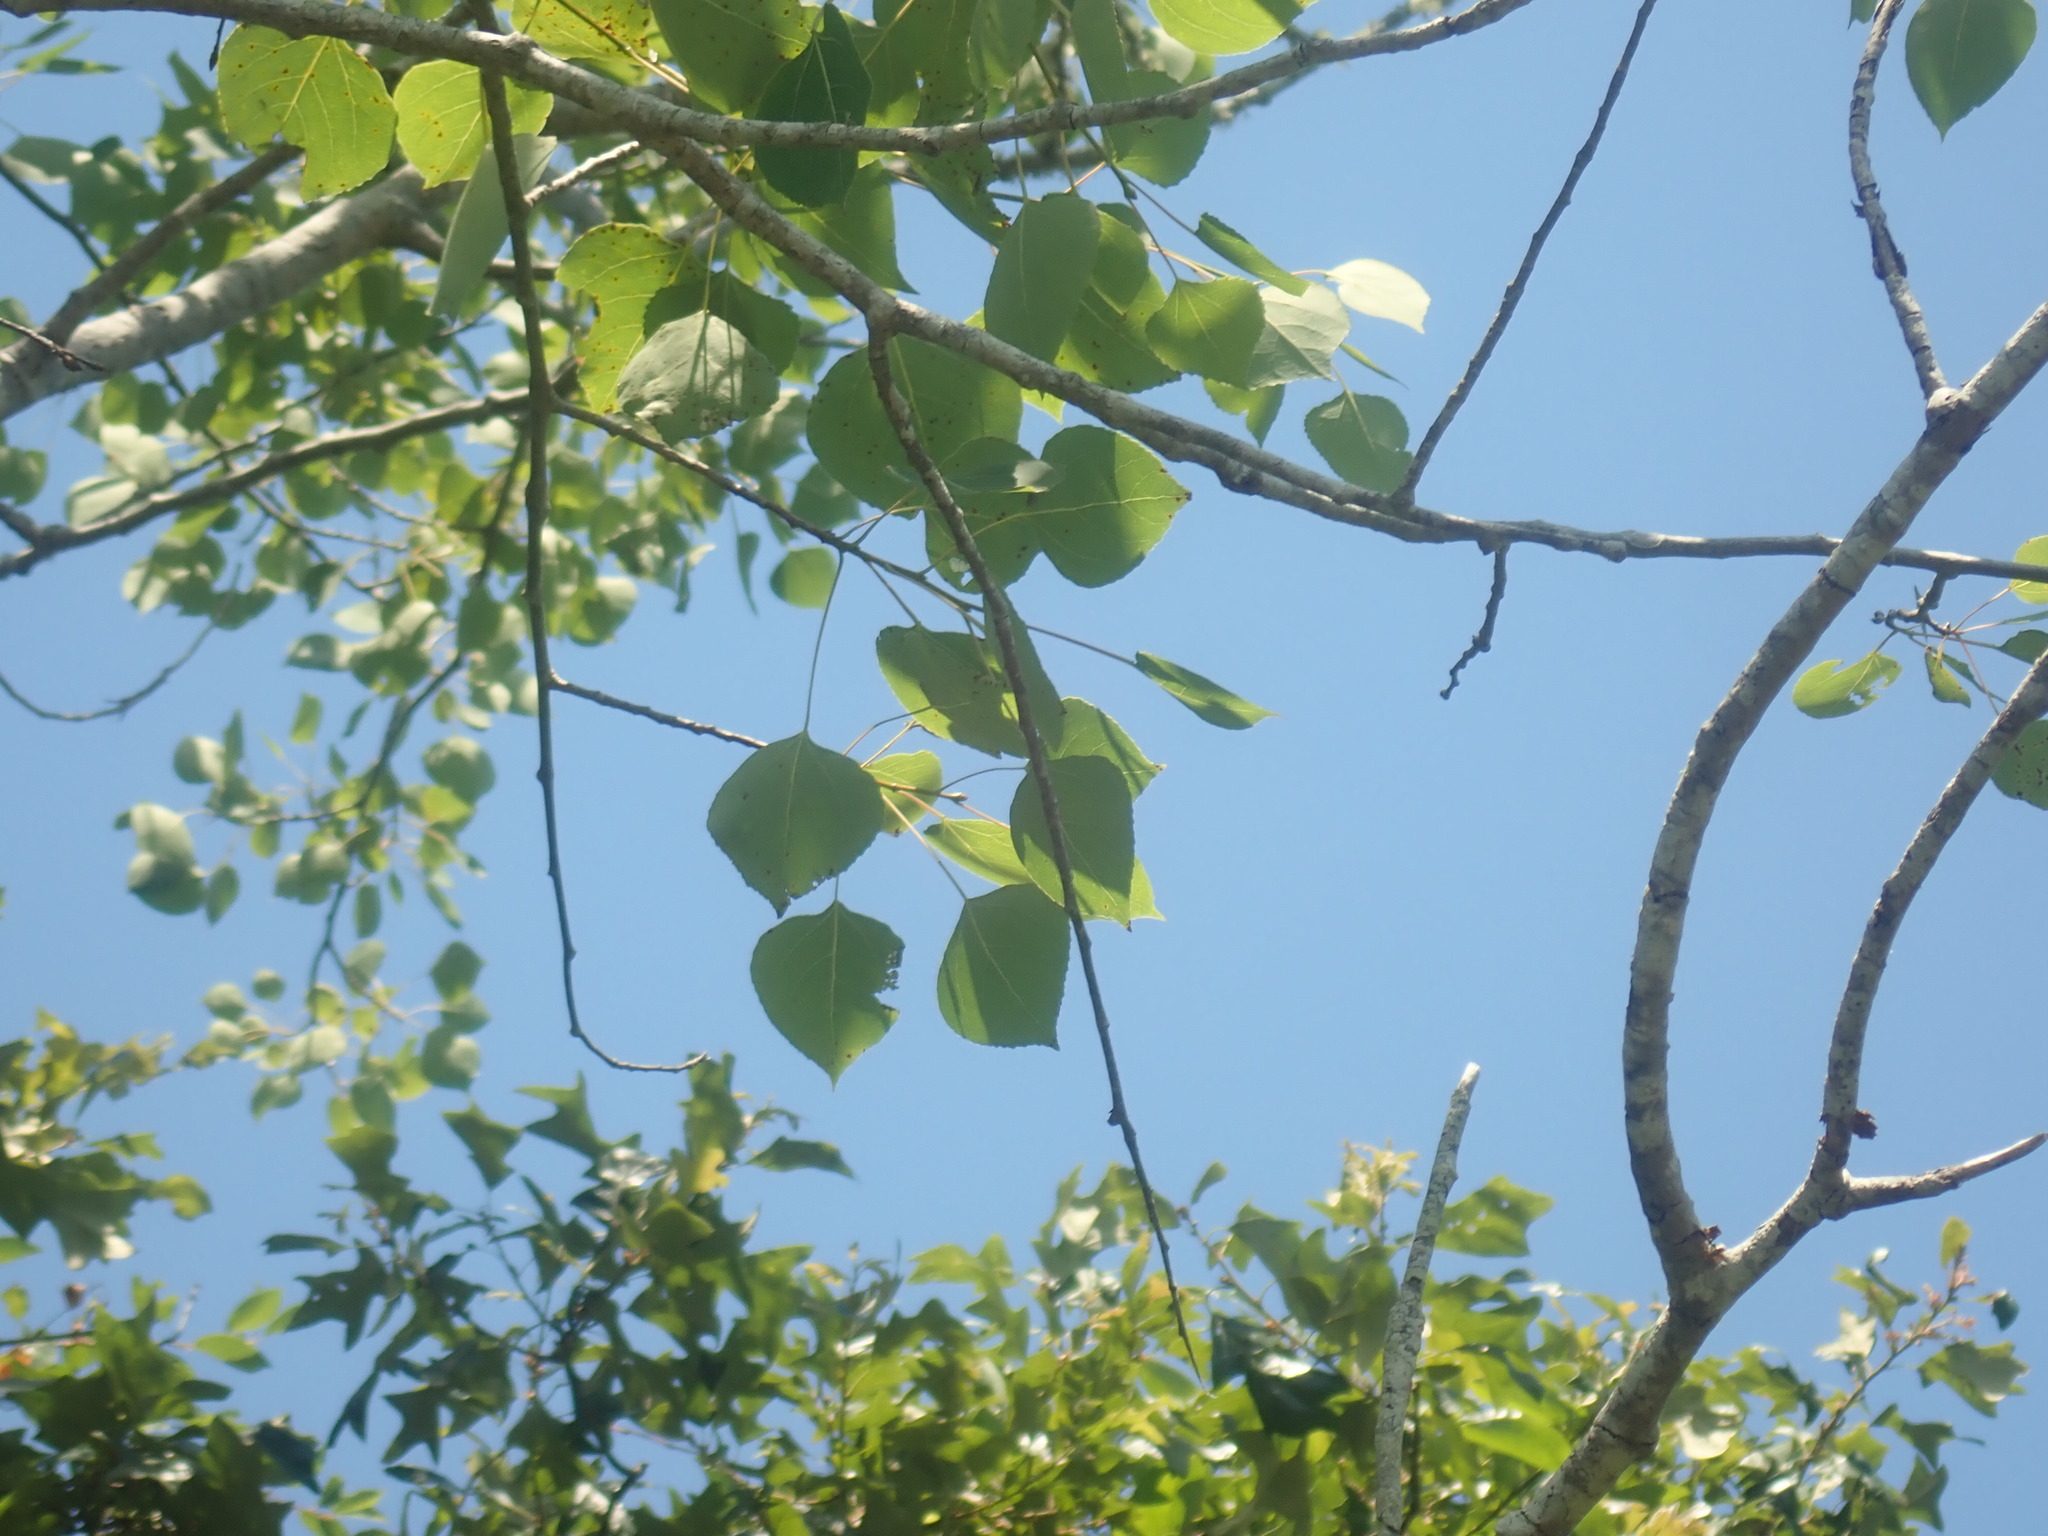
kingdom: Plantae
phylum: Tracheophyta
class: Magnoliopsida
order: Malpighiales
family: Salicaceae
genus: Populus
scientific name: Populus tremuloides
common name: Quaking aspen
